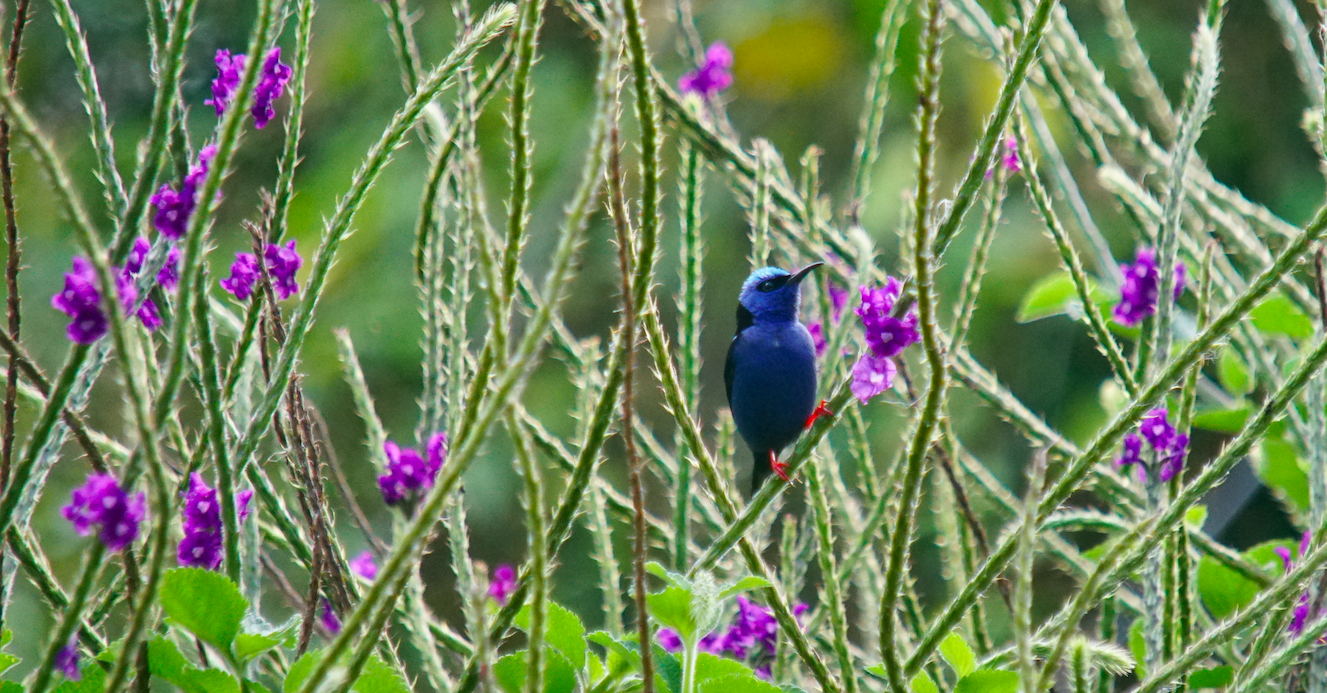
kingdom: Animalia
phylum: Chordata
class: Aves
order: Passeriformes
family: Thraupidae
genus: Cyanerpes
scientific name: Cyanerpes cyaneus
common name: Red-legged honeycreeper
